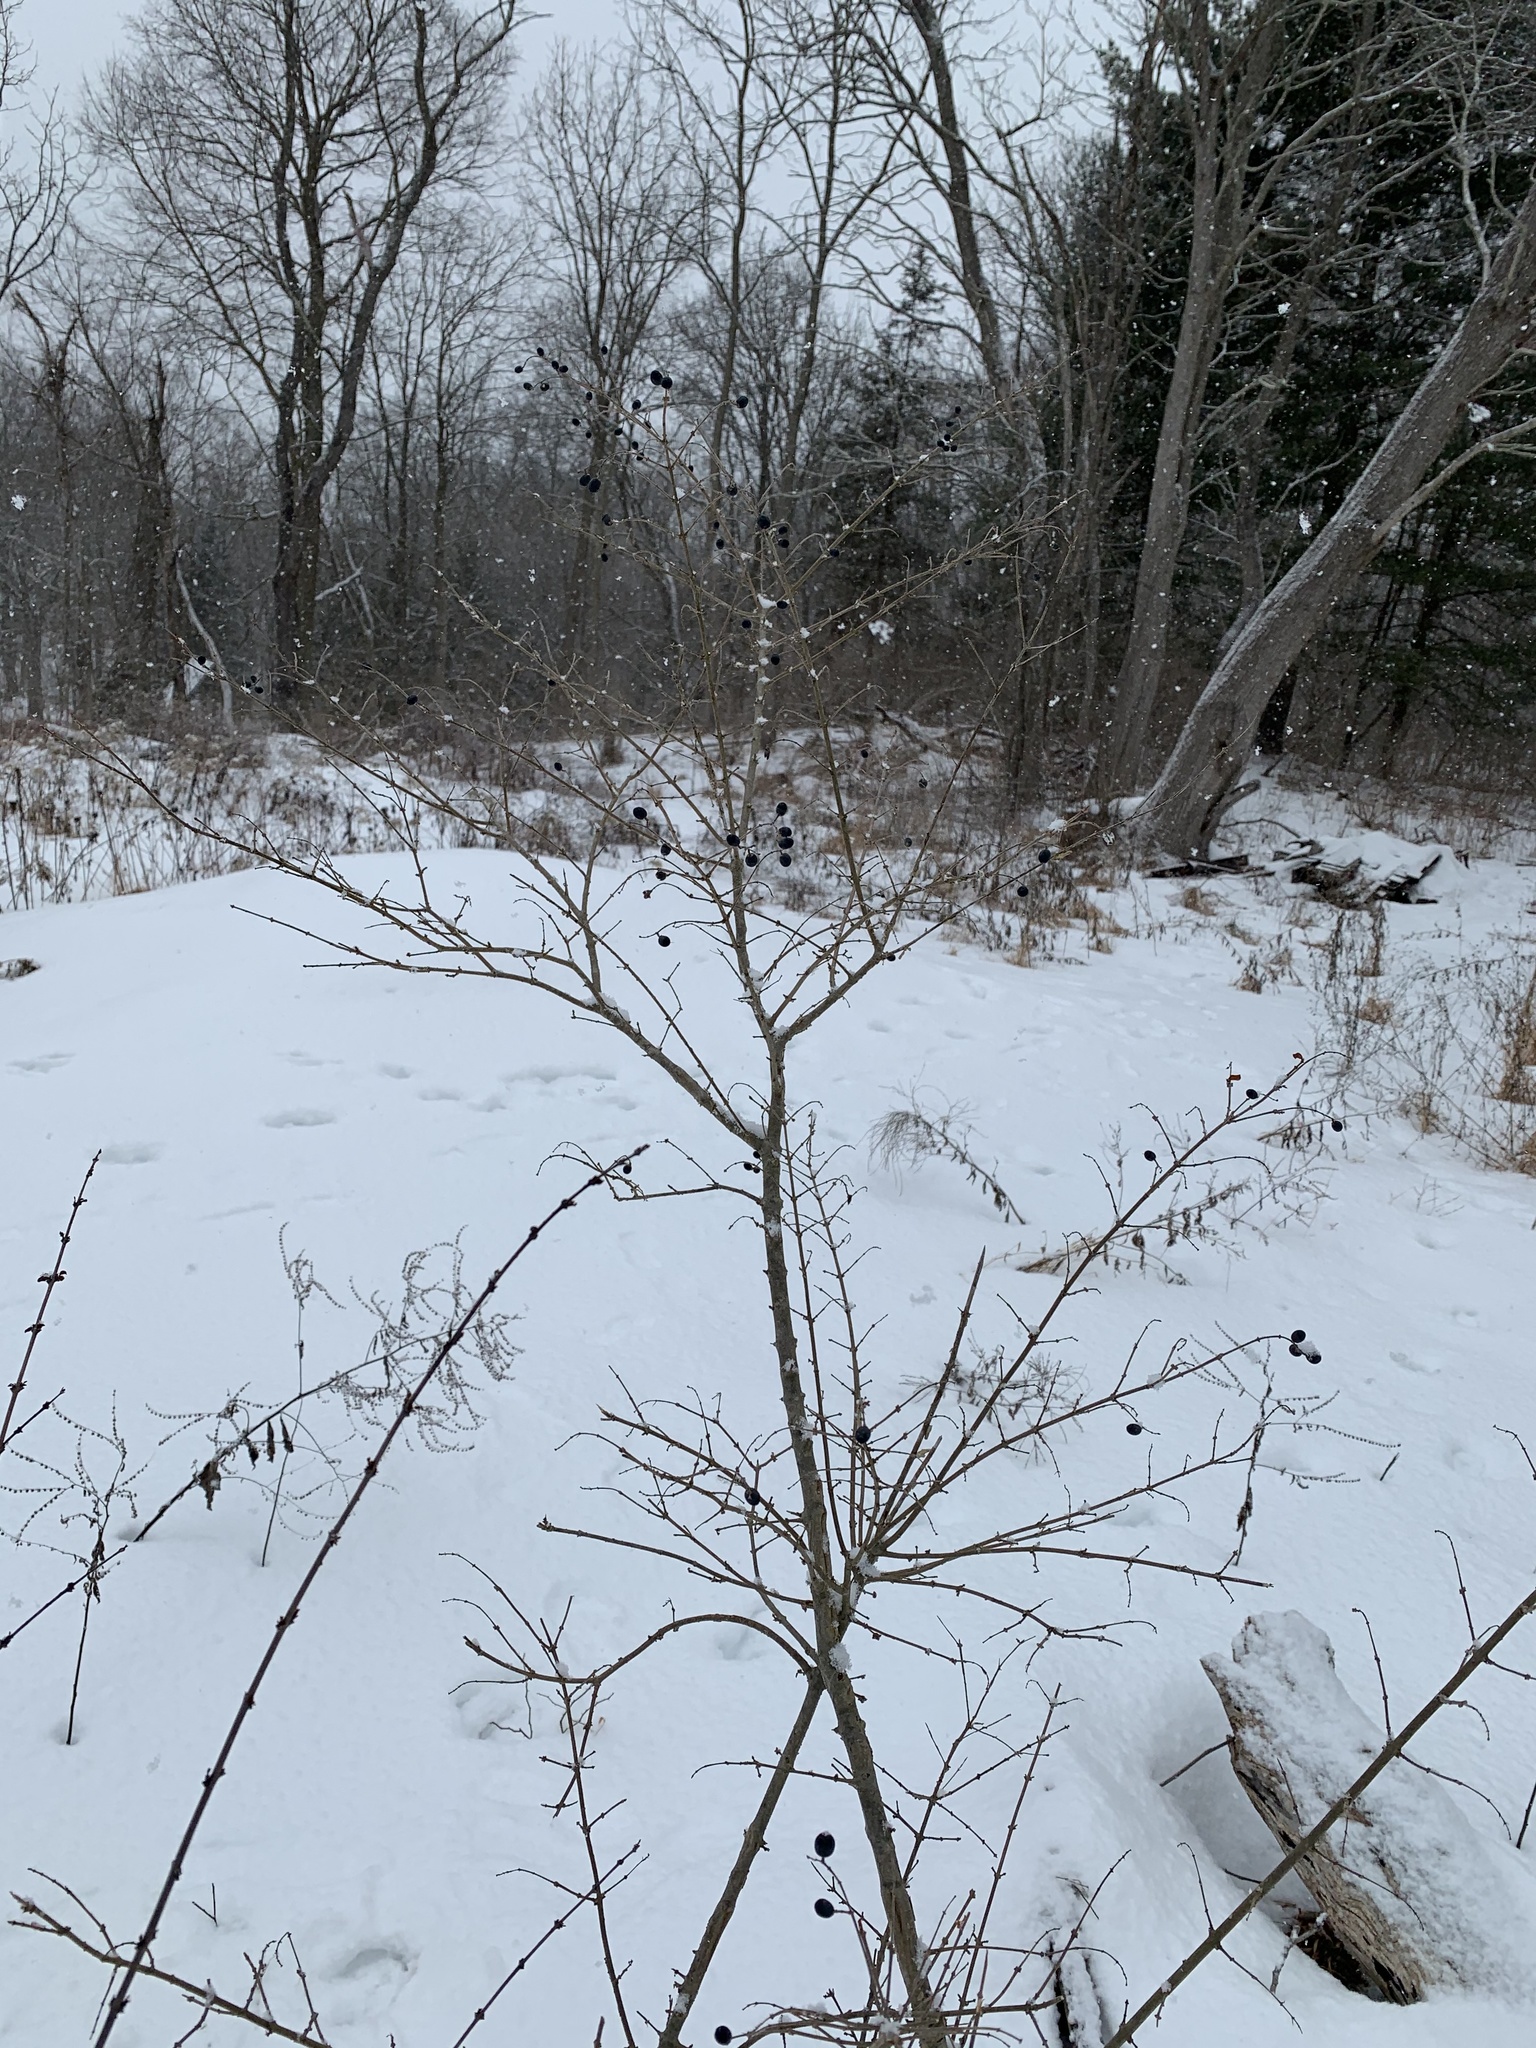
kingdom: Plantae
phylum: Tracheophyta
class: Magnoliopsida
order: Lamiales
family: Oleaceae
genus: Ligustrum
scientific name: Ligustrum obtusifolium
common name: Border privet
